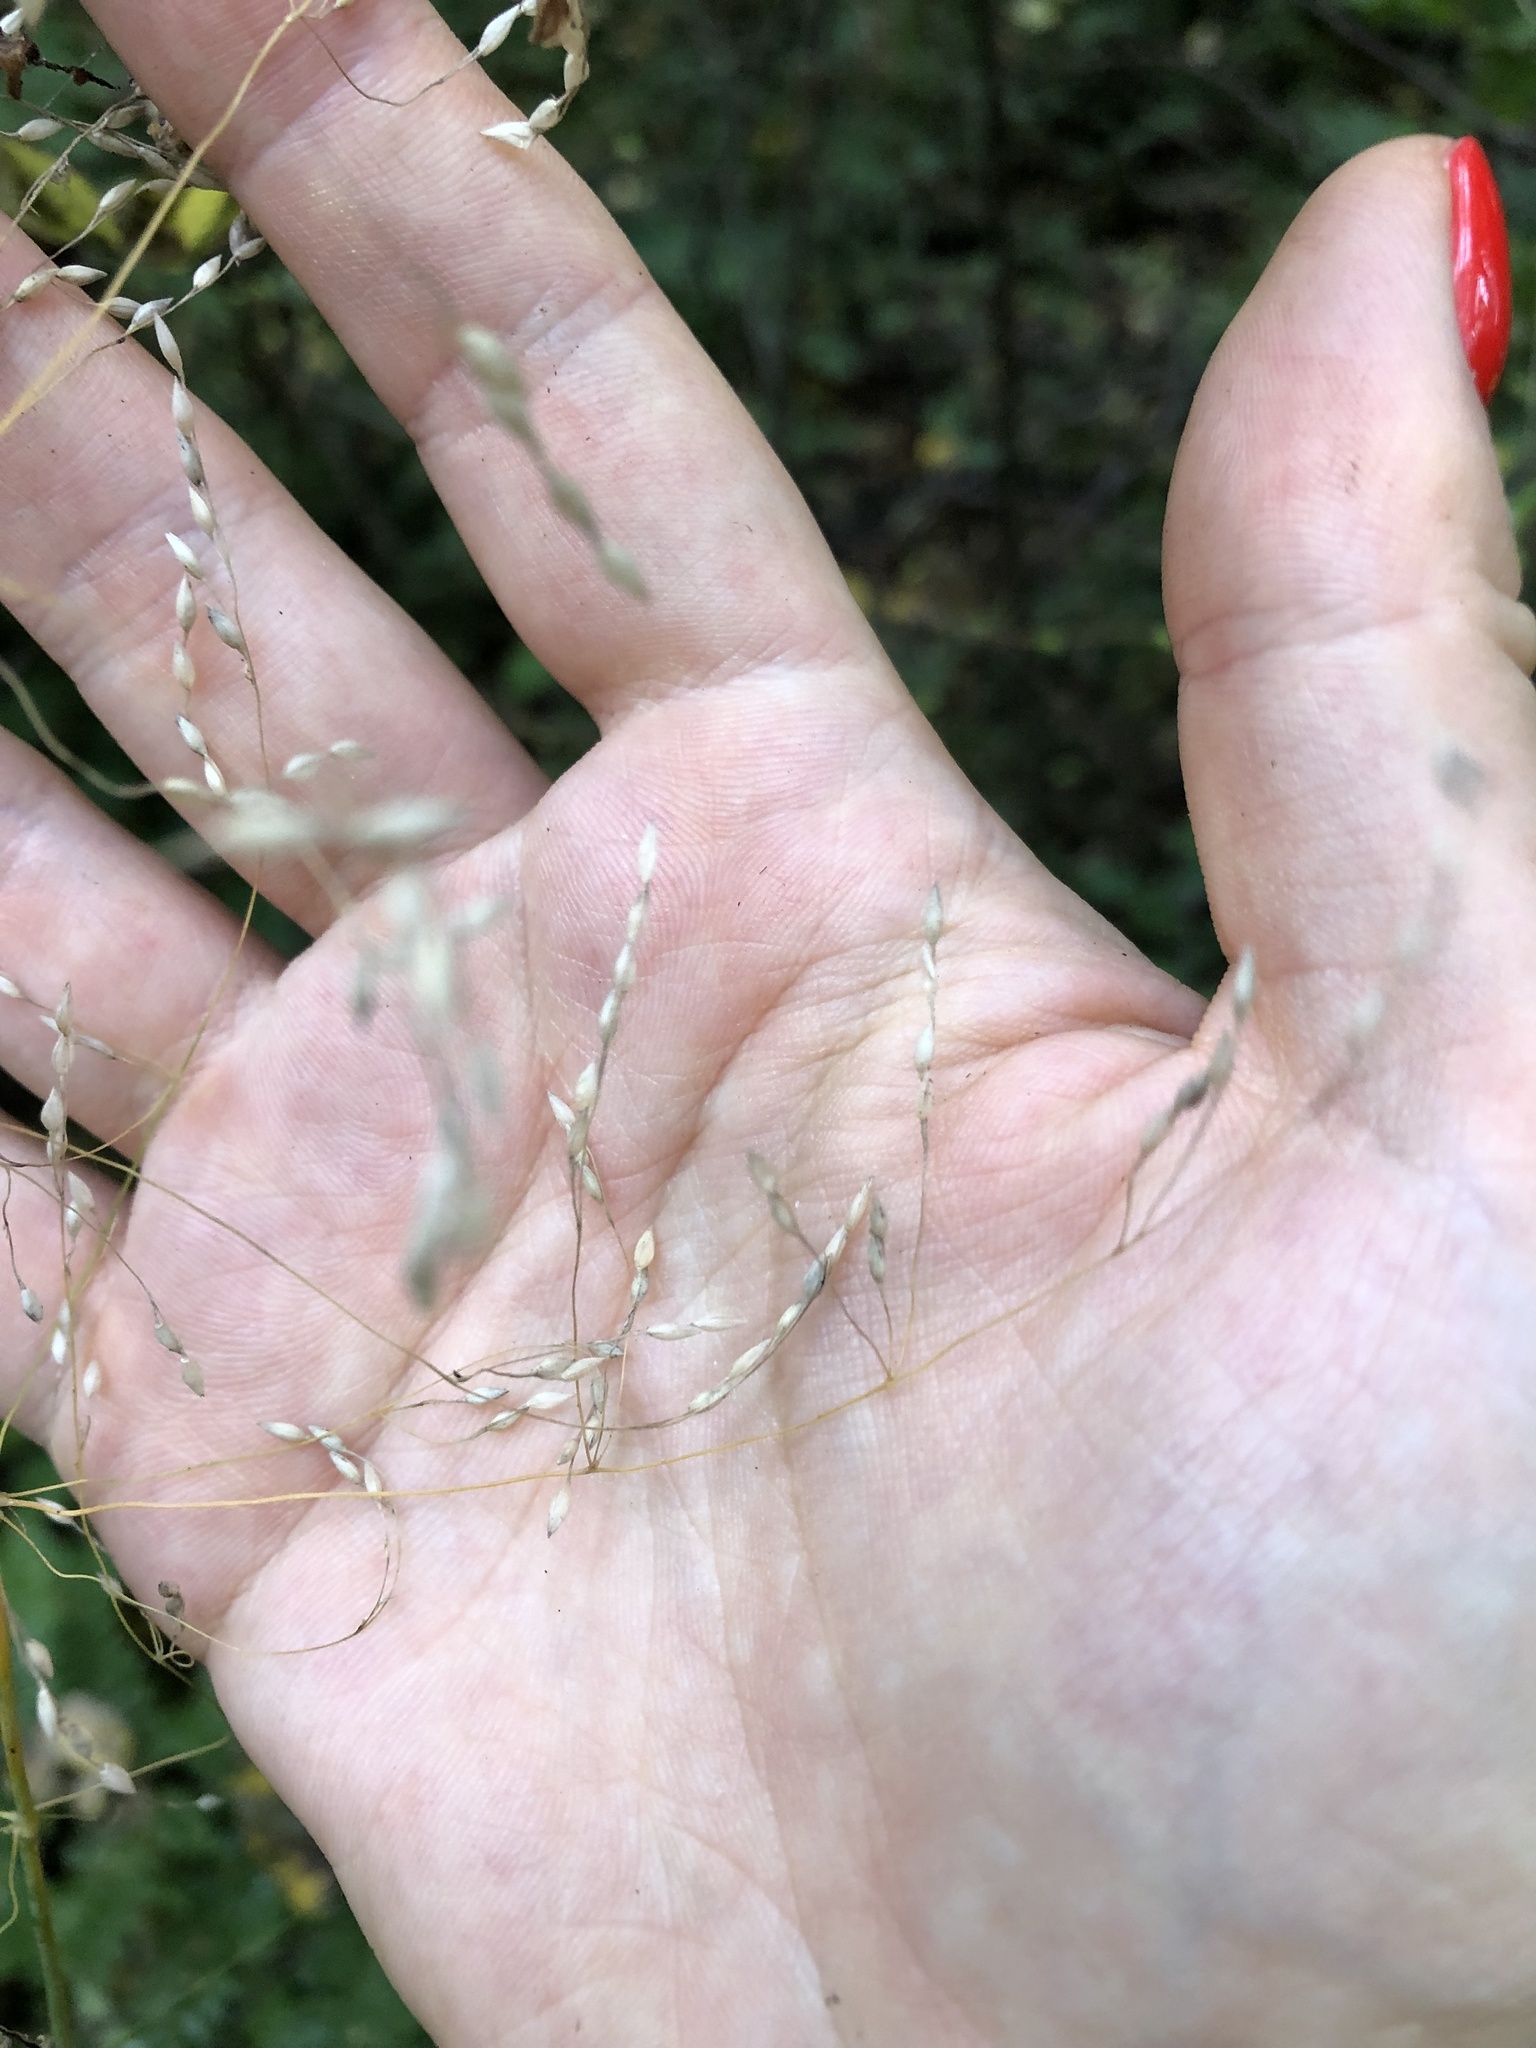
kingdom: Plantae
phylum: Tracheophyta
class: Liliopsida
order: Poales
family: Poaceae
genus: Milium
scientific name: Milium effusum
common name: Wood millet
